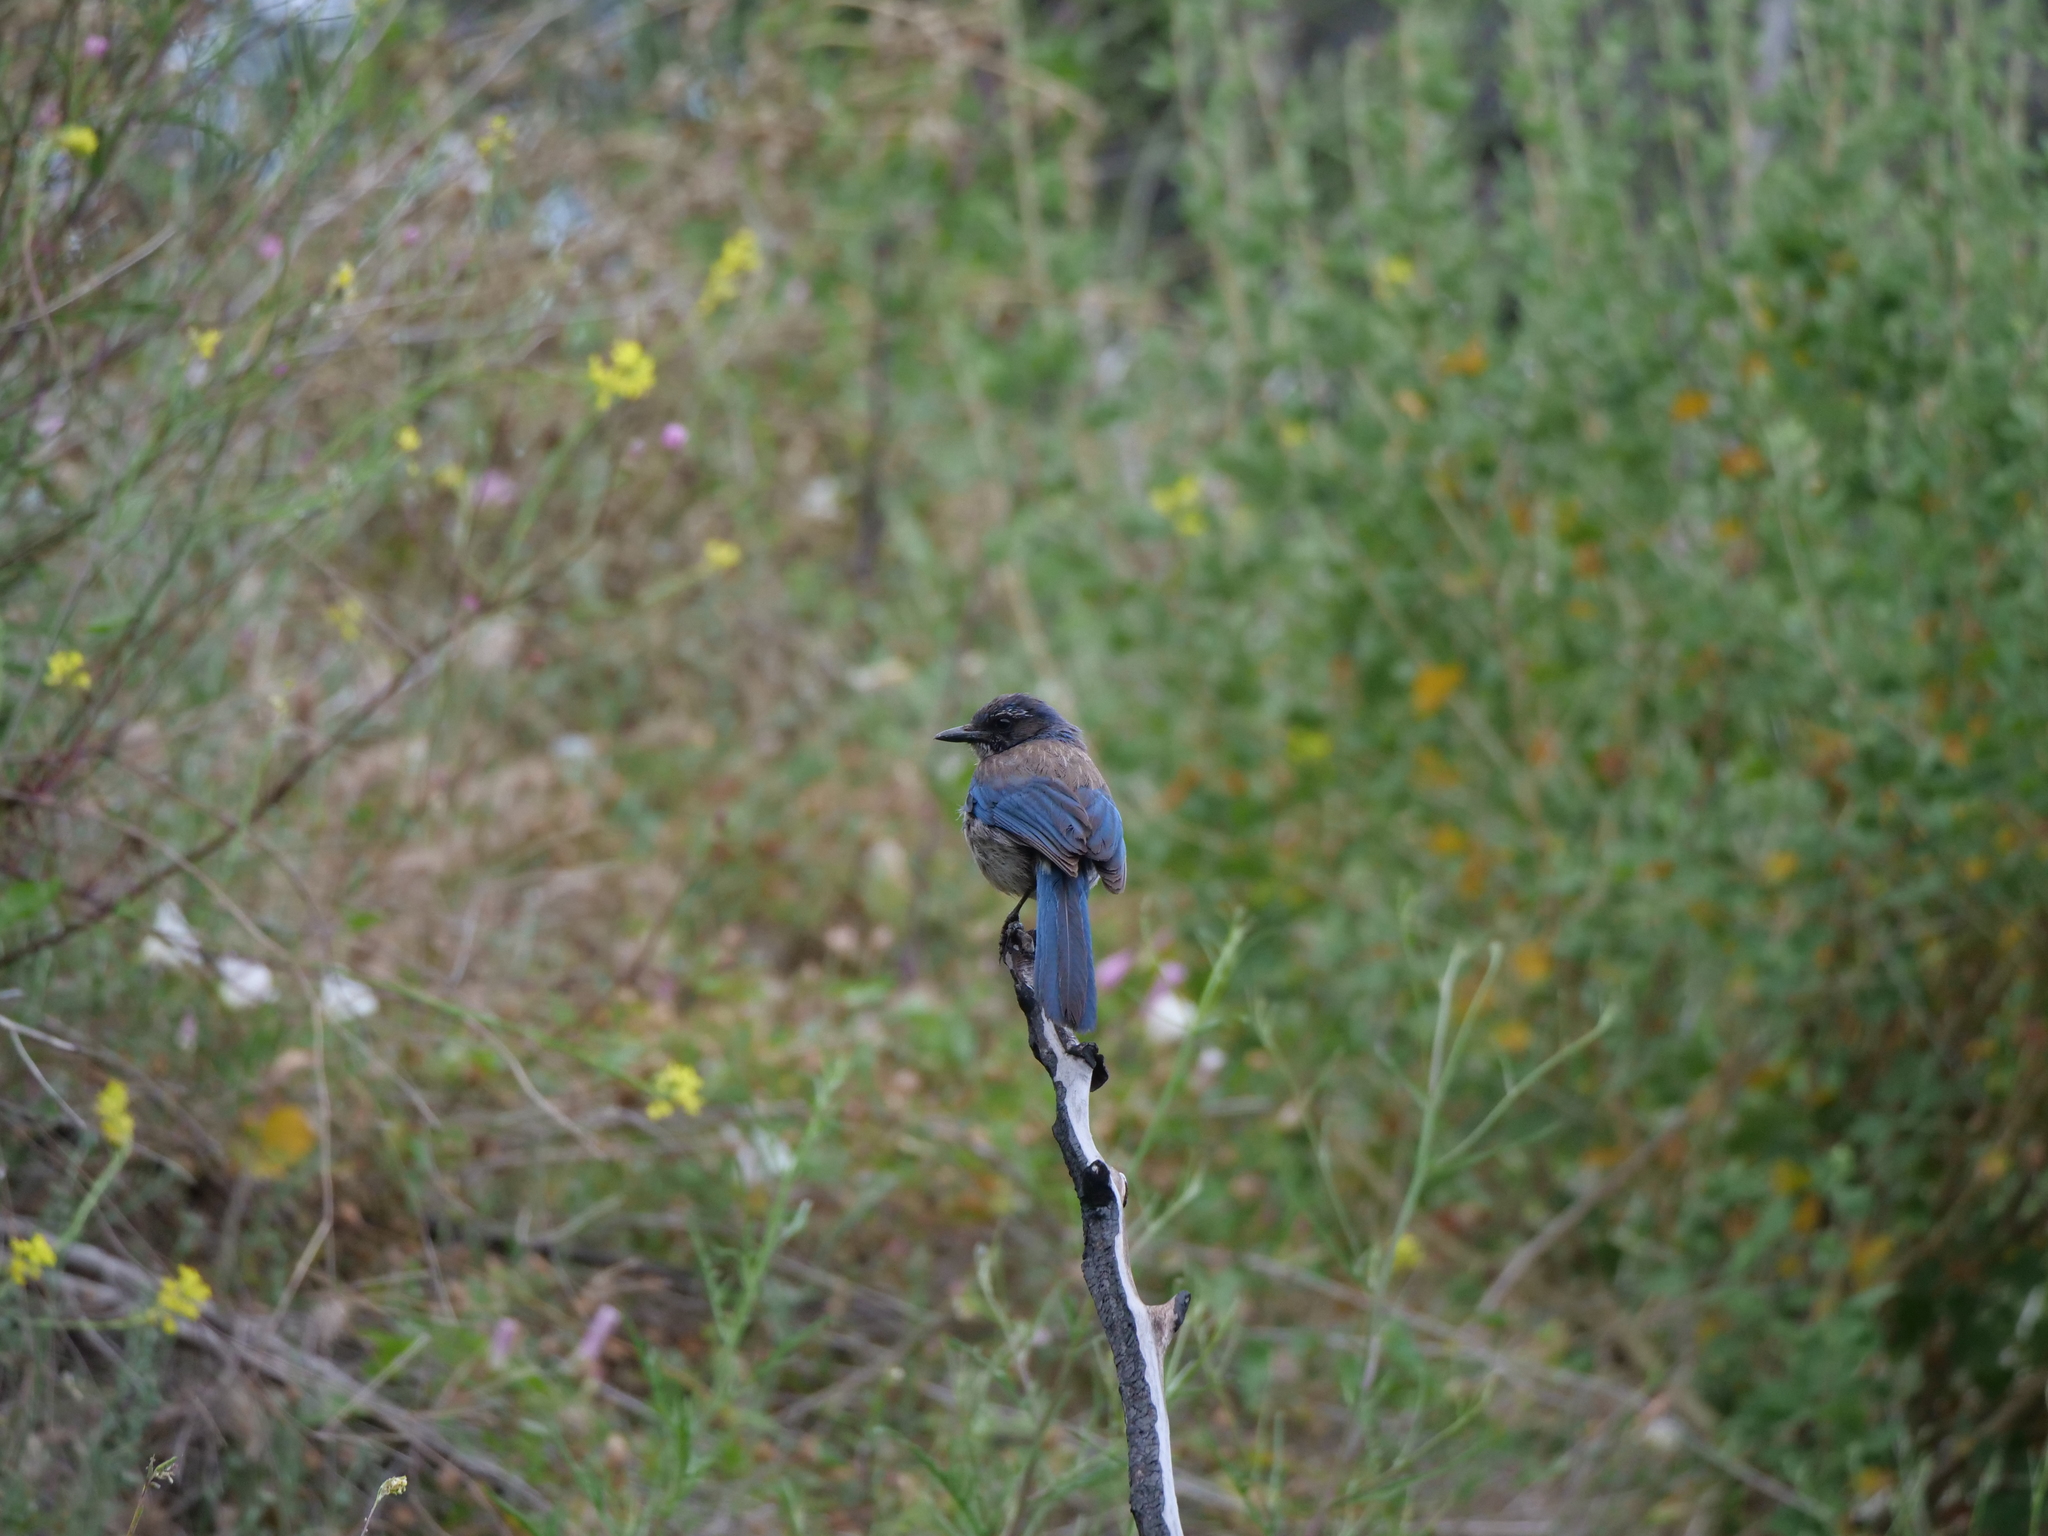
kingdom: Animalia
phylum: Chordata
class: Aves
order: Passeriformes
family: Corvidae
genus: Aphelocoma
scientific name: Aphelocoma californica
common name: California scrub-jay
